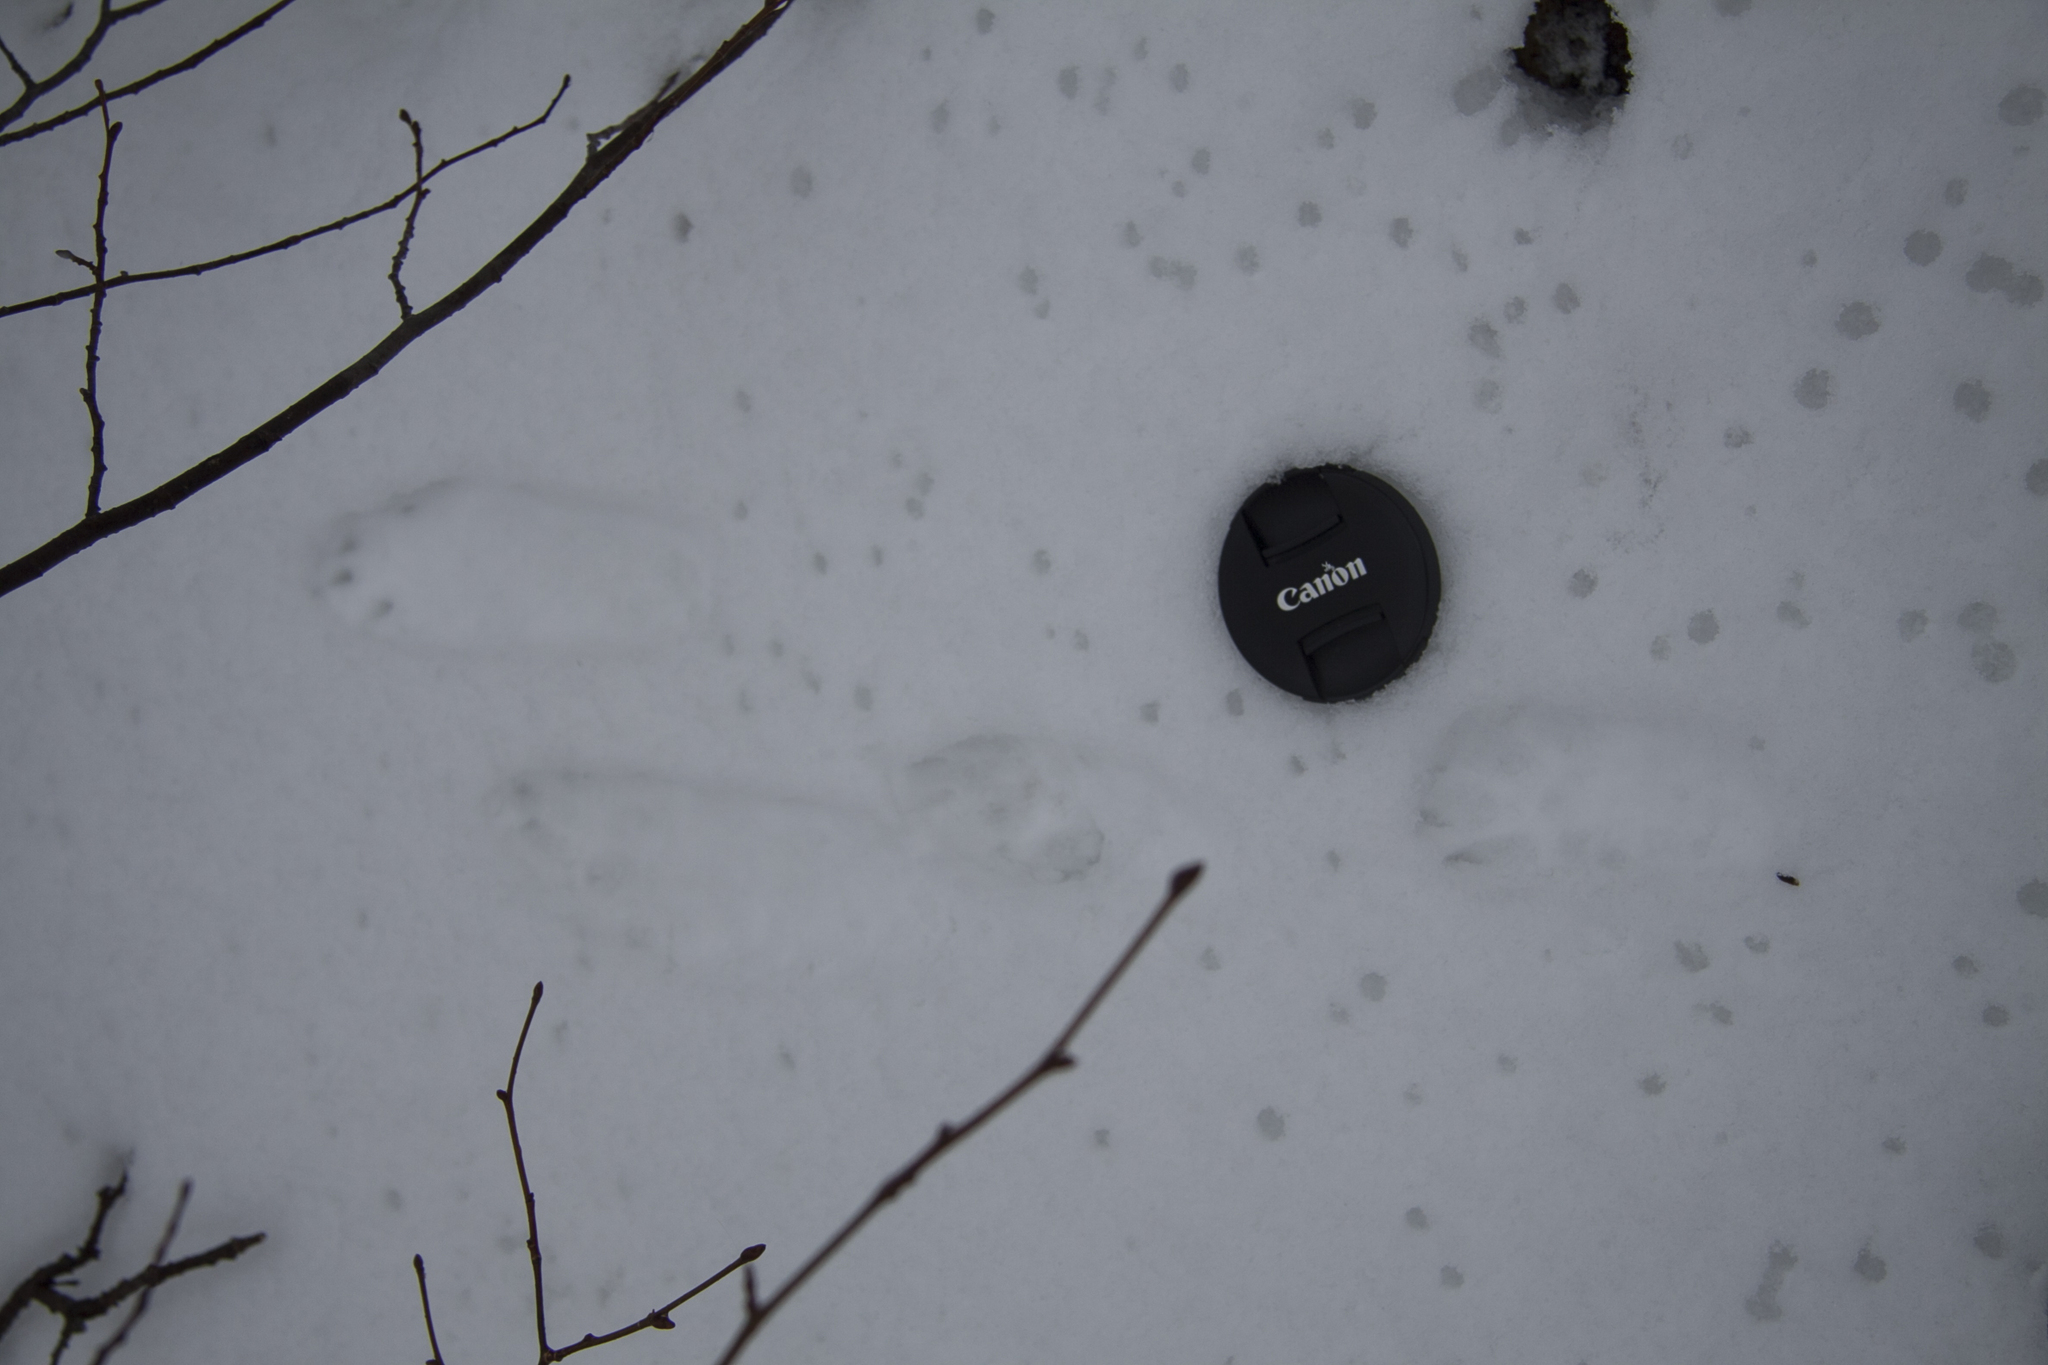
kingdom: Animalia
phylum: Chordata
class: Mammalia
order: Lagomorpha
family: Leporidae
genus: Lepus
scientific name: Lepus timidus
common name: Mountain hare
